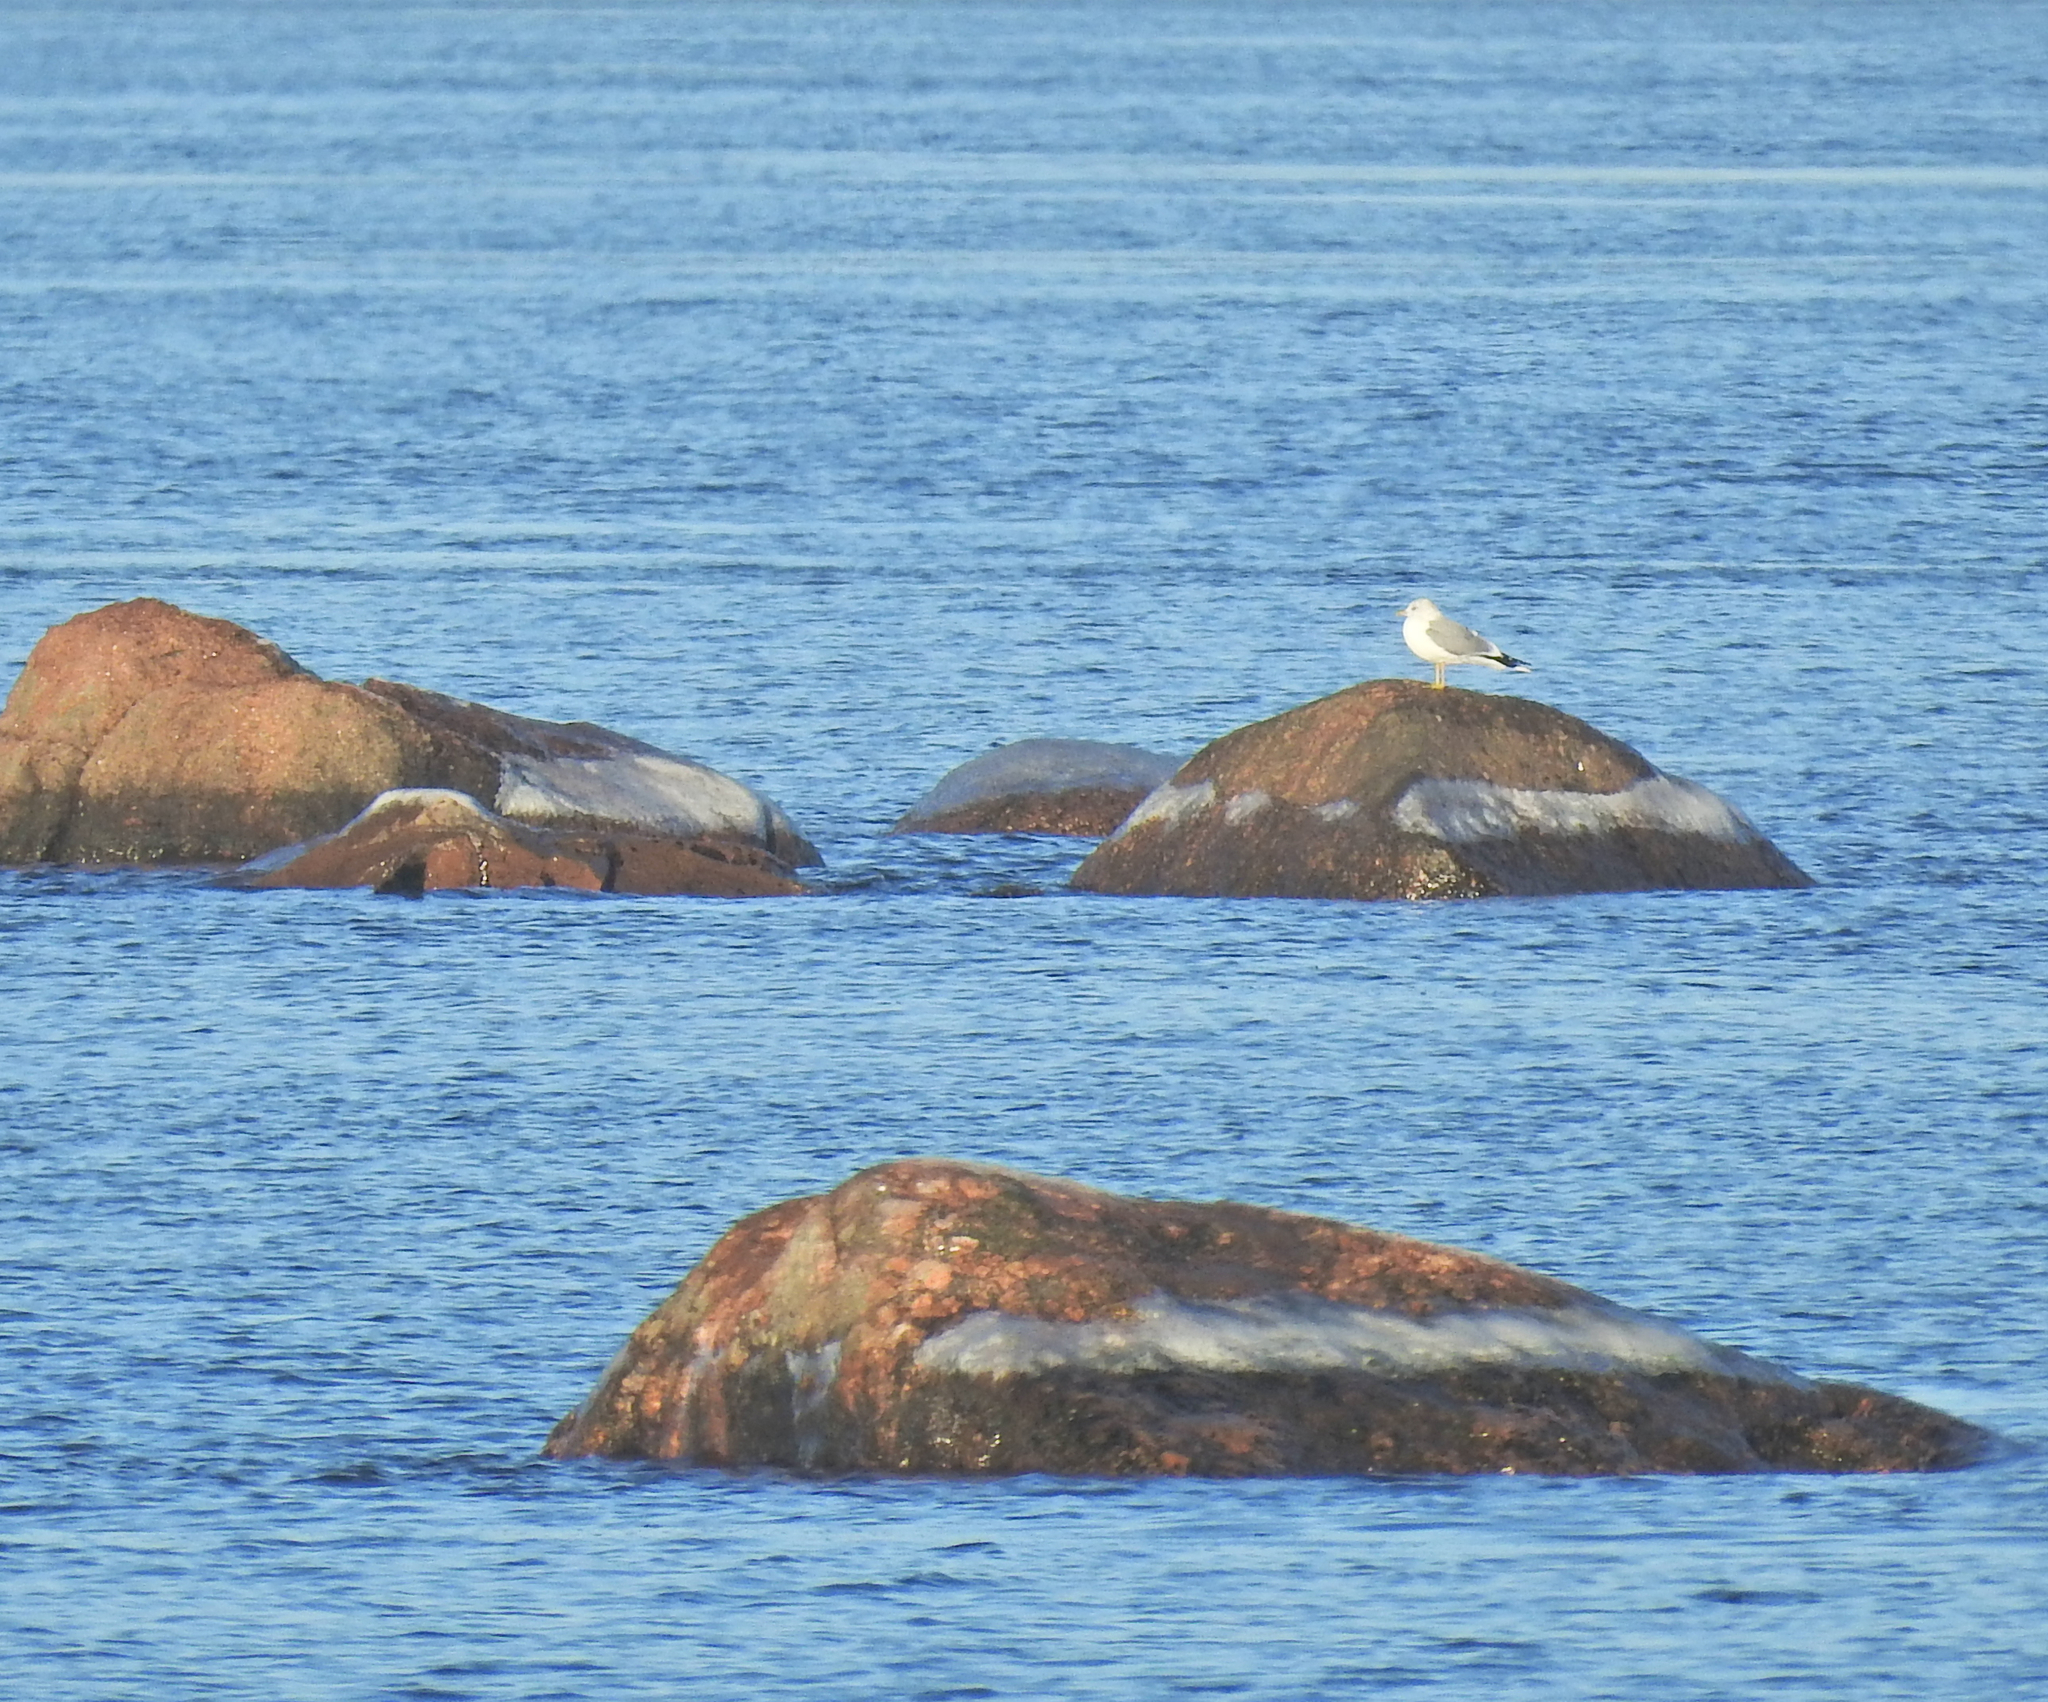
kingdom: Animalia
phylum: Chordata
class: Aves
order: Charadriiformes
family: Laridae
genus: Larus
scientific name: Larus canus
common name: Mew gull
